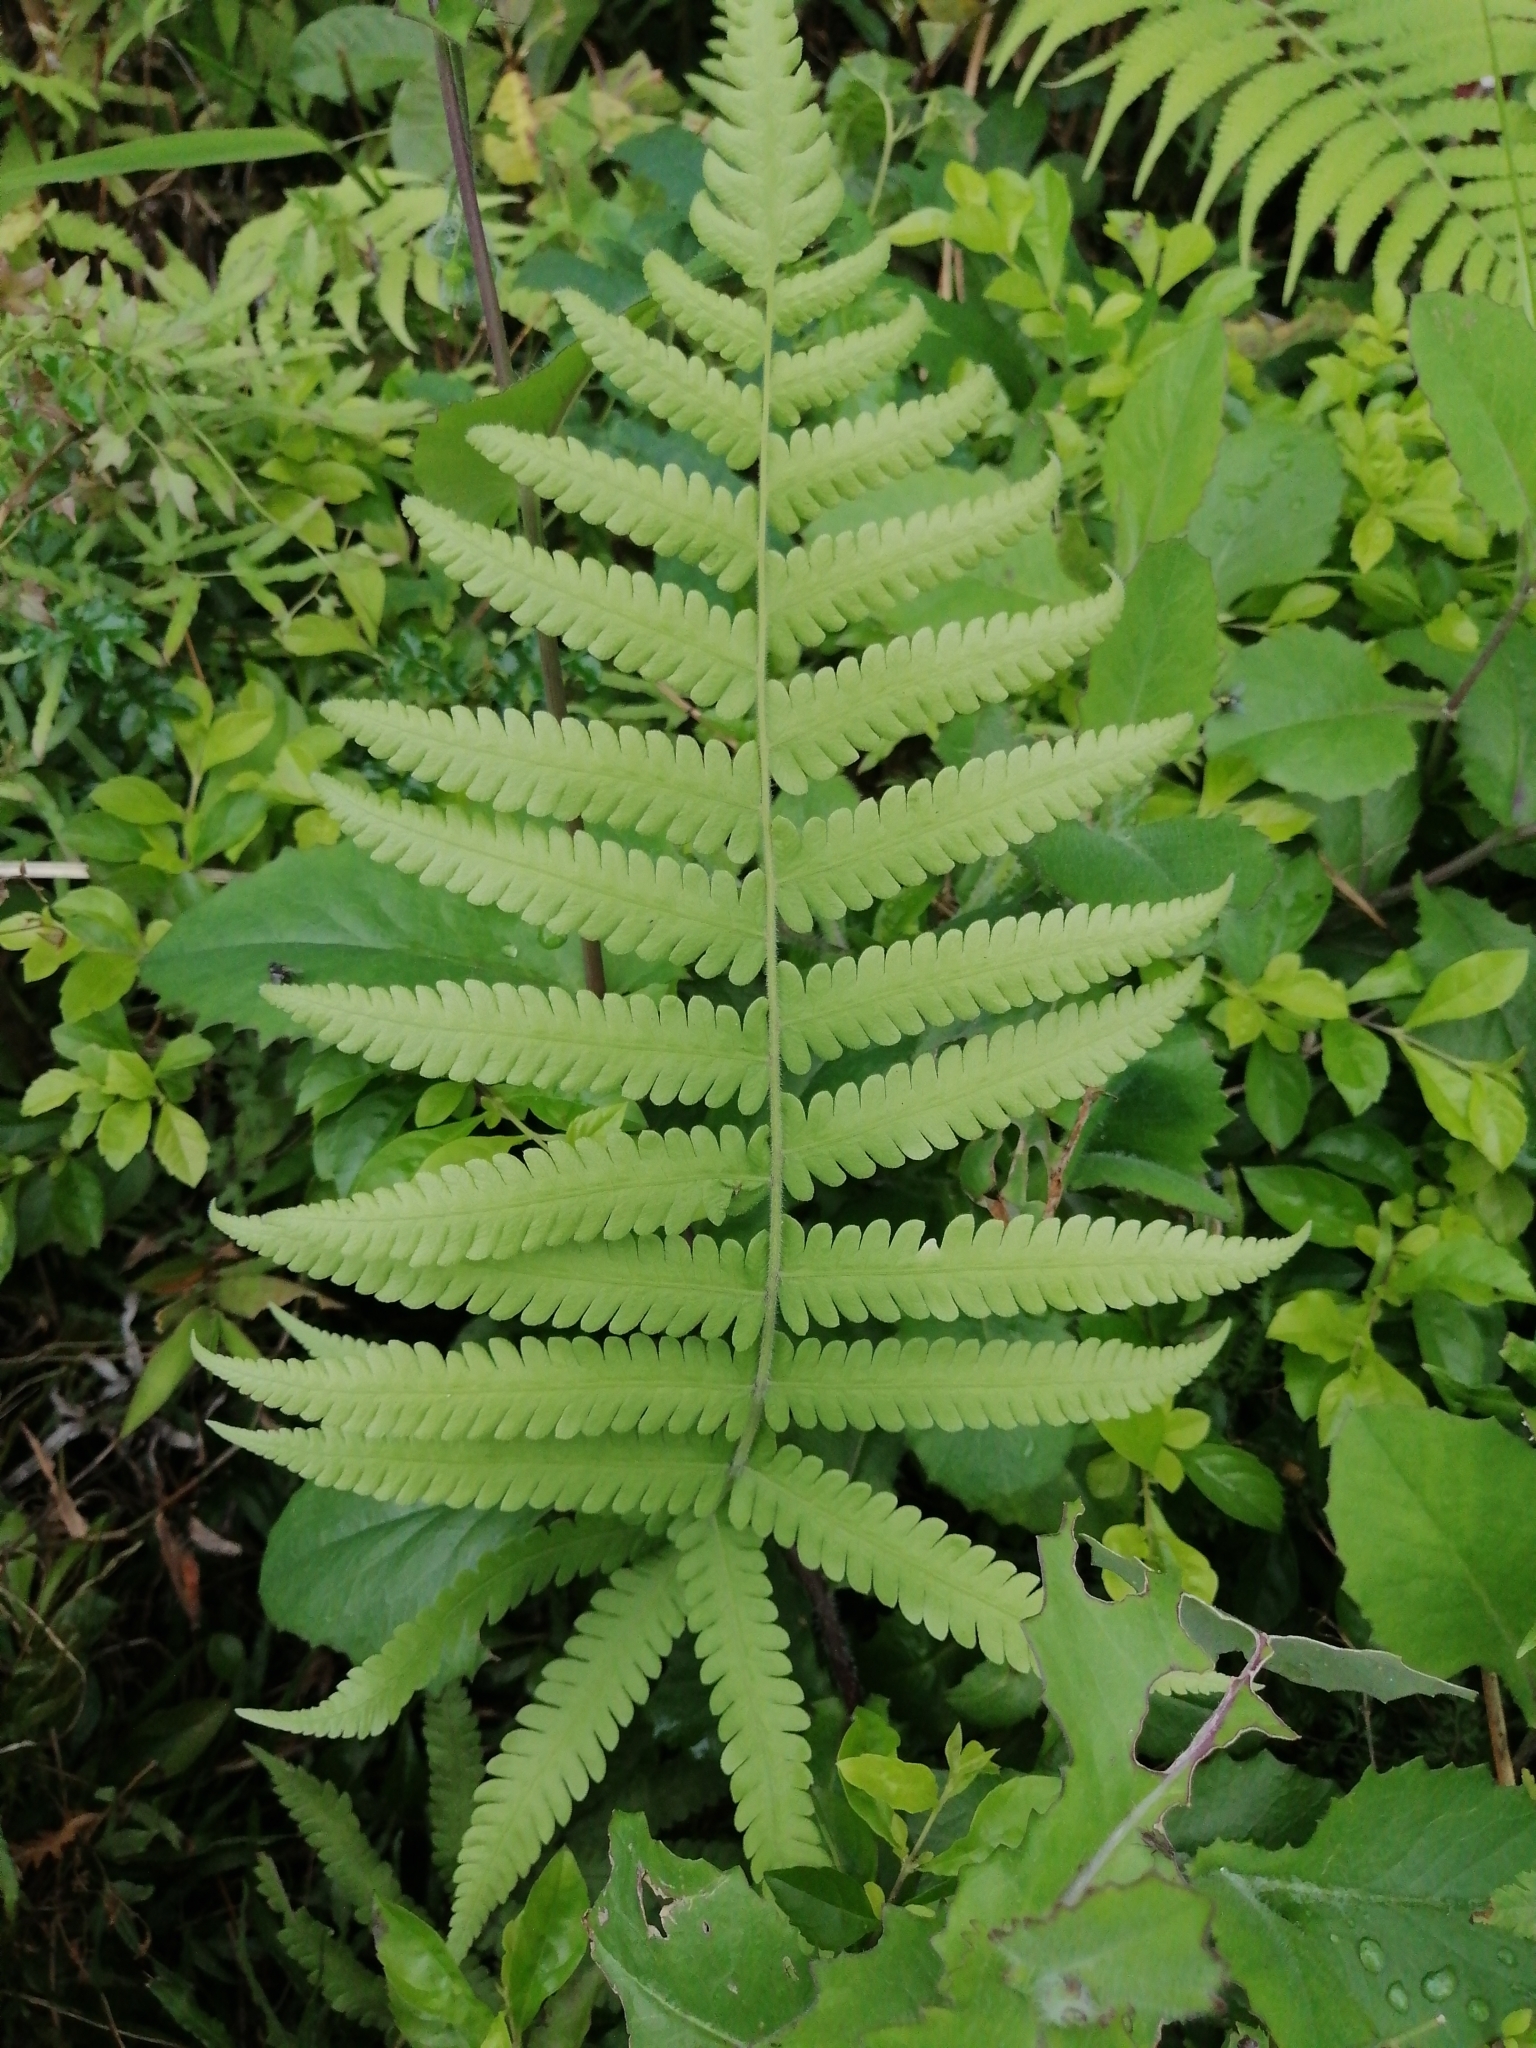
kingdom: Plantae
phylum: Tracheophyta
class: Polypodiopsida
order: Polypodiales
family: Thelypteridaceae
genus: Christella
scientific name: Christella parasitica
